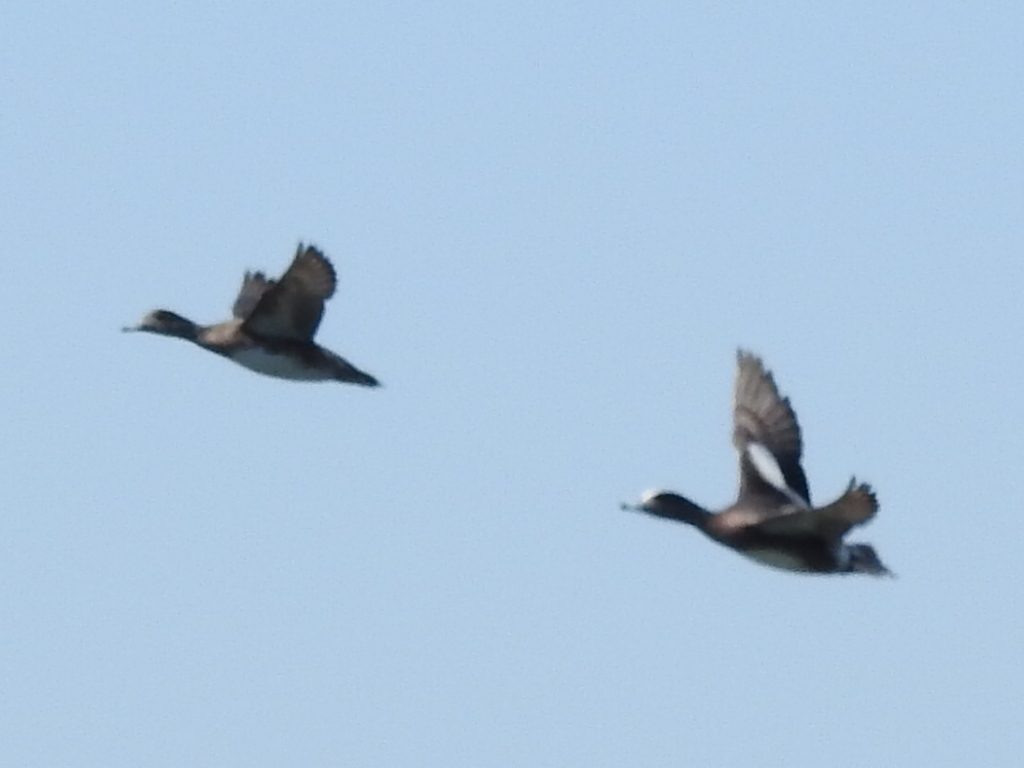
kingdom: Animalia
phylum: Chordata
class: Aves
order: Anseriformes
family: Anatidae
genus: Mareca
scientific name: Mareca americana
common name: American wigeon
